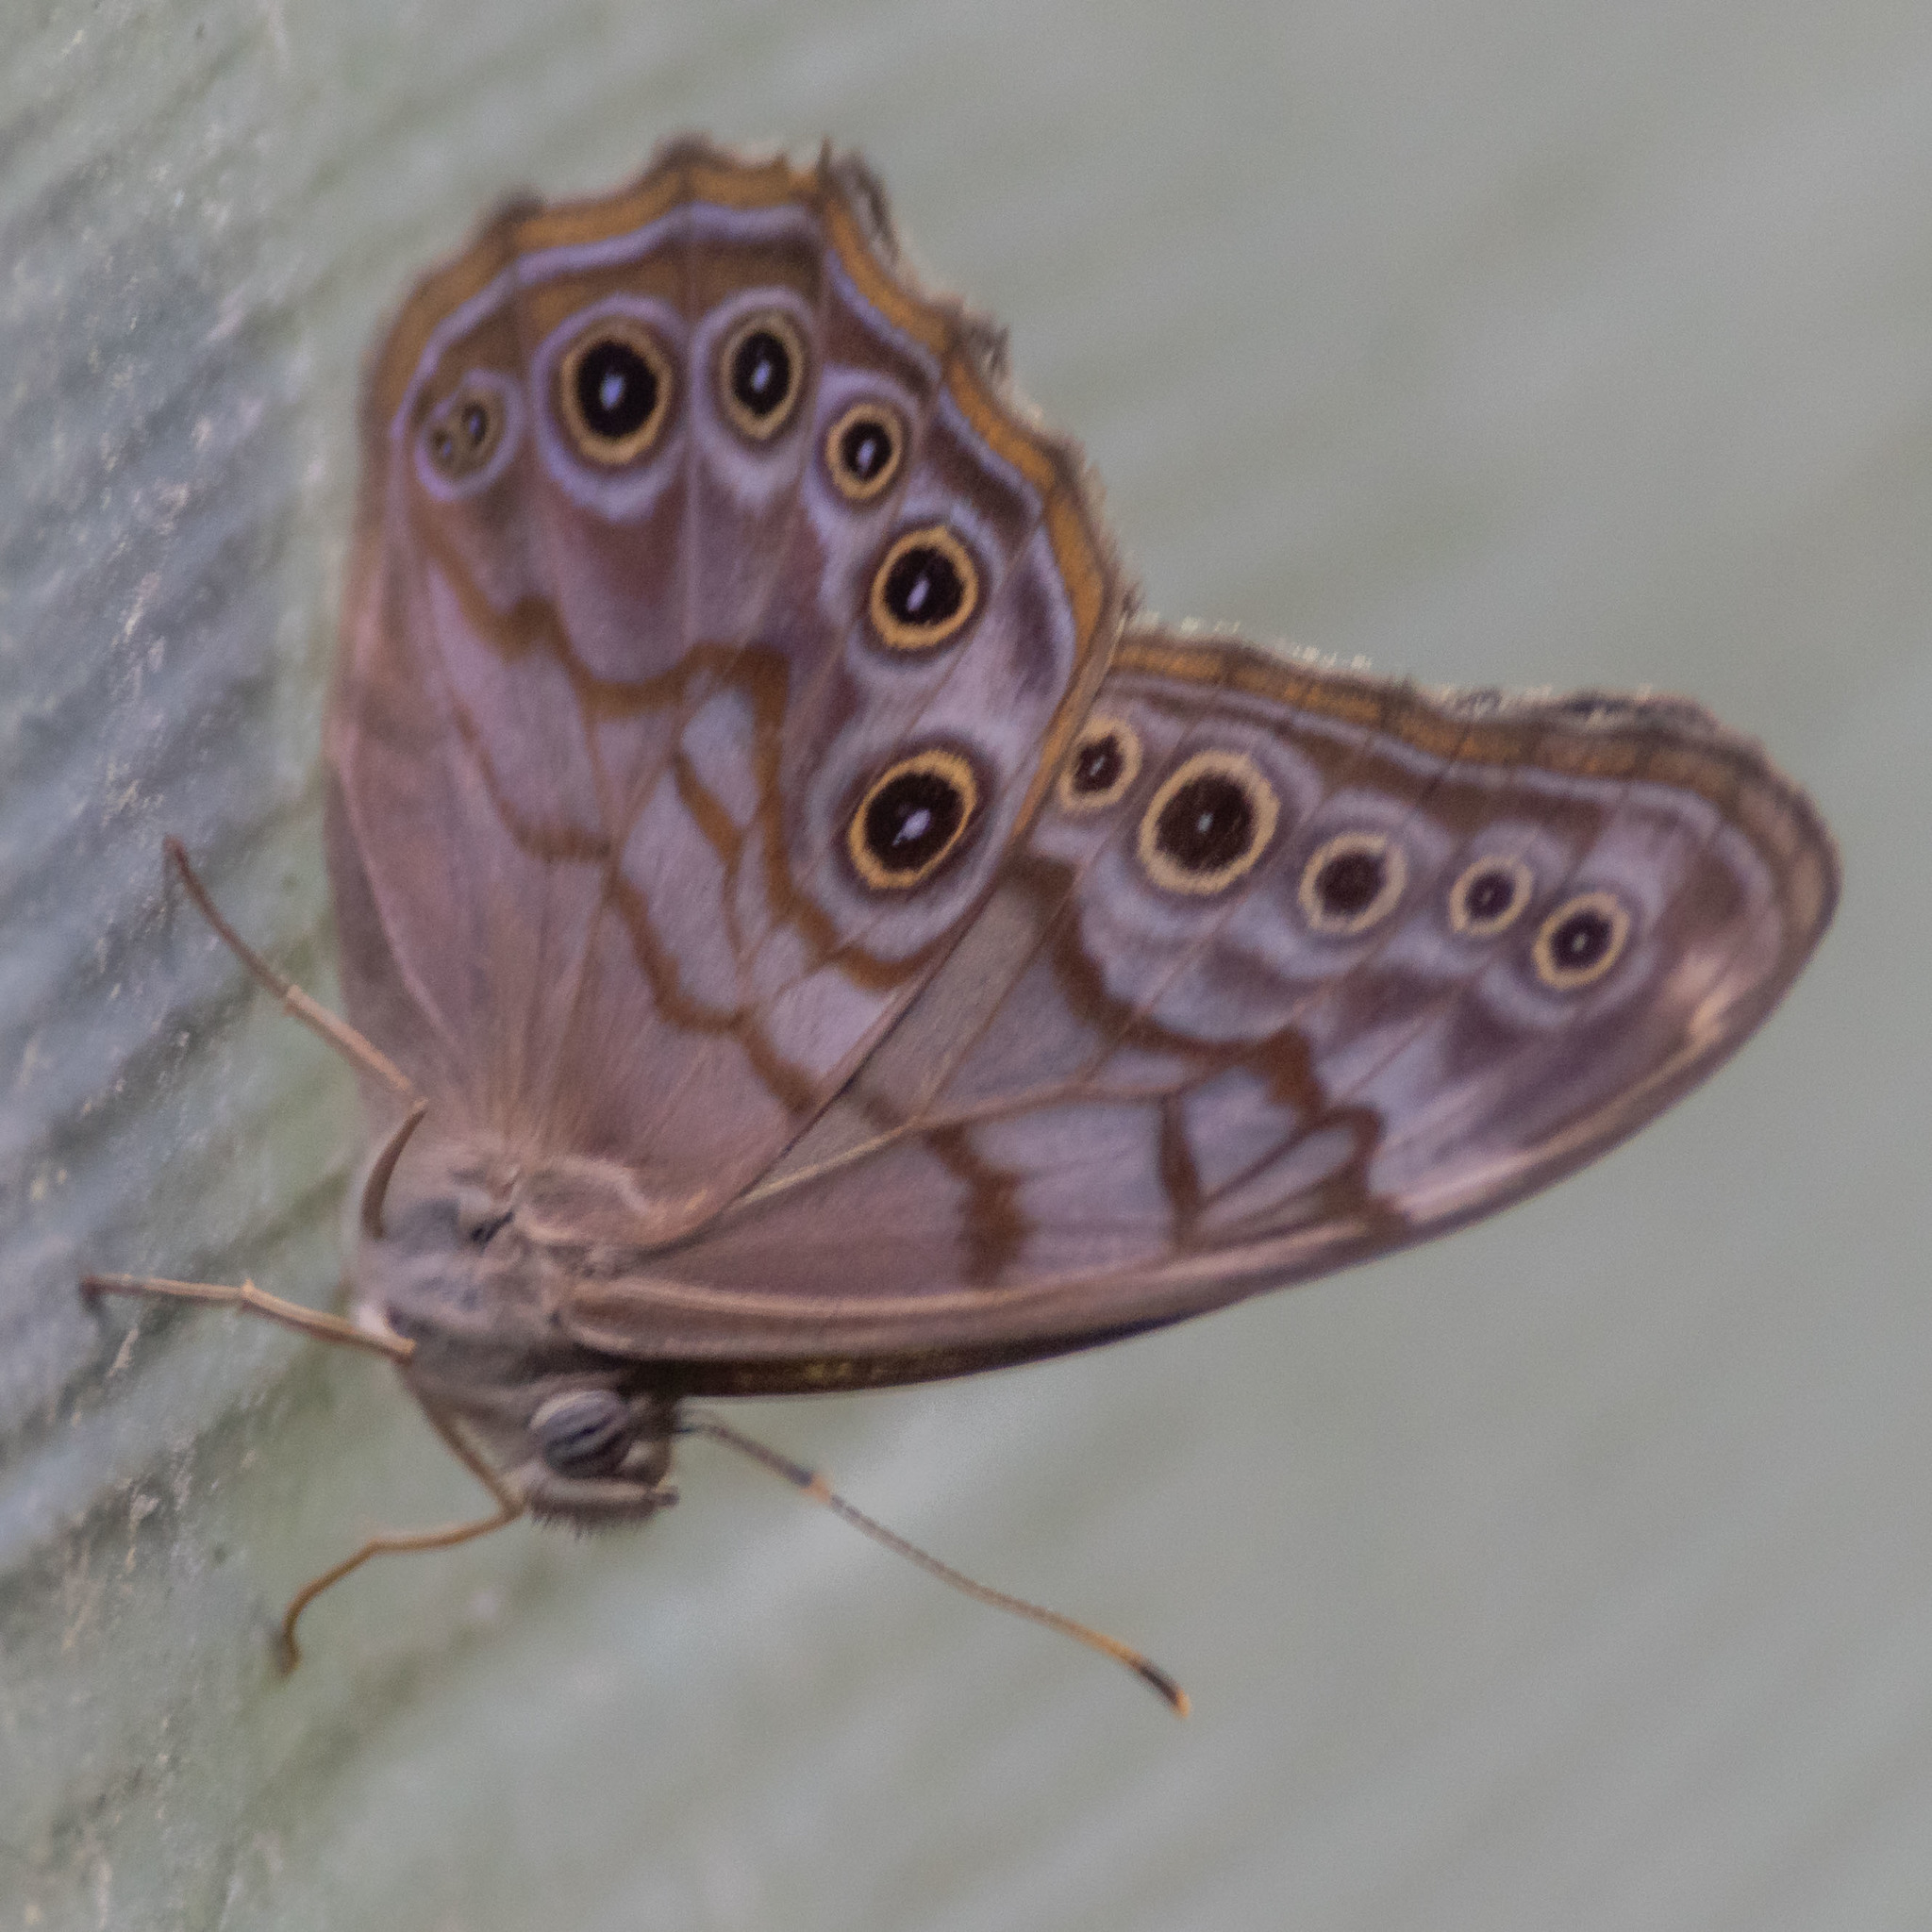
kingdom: Animalia
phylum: Arthropoda
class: Insecta
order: Lepidoptera
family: Nymphalidae
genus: Lethe
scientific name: Lethe creola
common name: Creole pearly-eye
